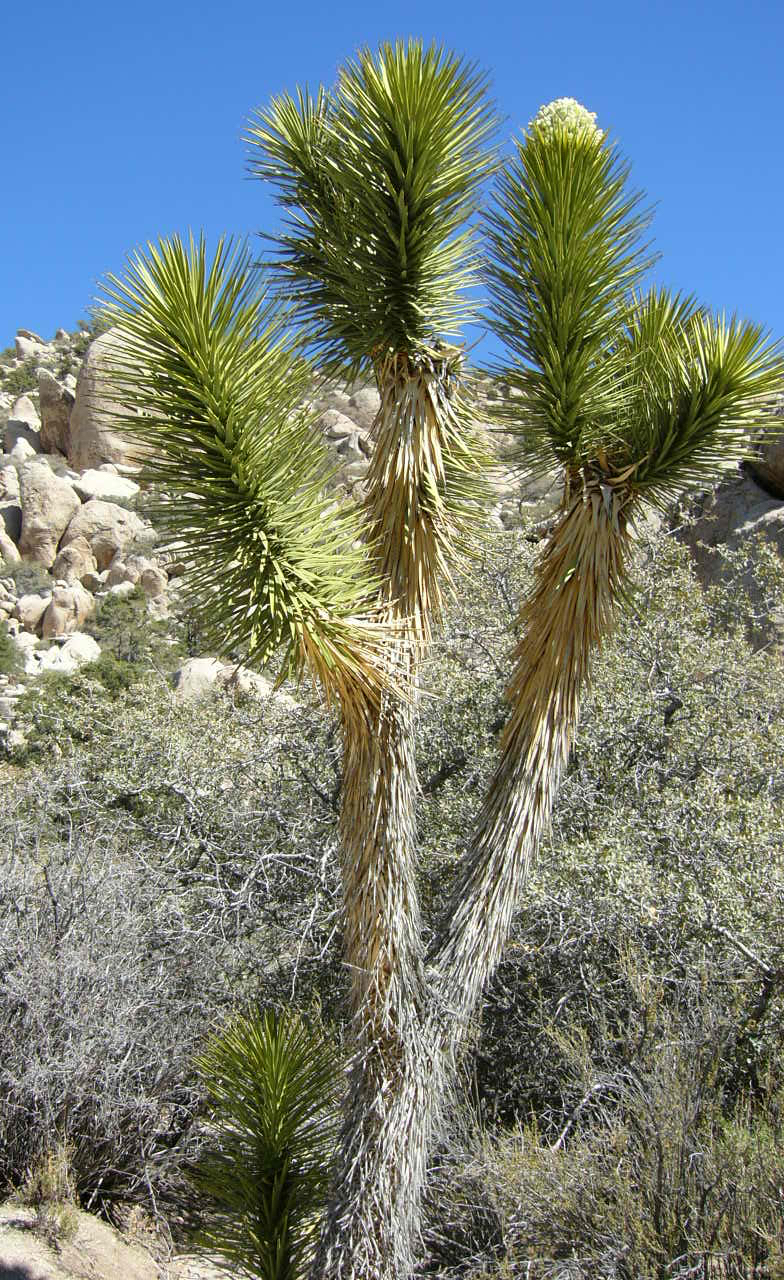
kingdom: Plantae
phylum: Tracheophyta
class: Liliopsida
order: Asparagales
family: Asparagaceae
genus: Yucca
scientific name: Yucca brevifolia
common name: Joshua tree
